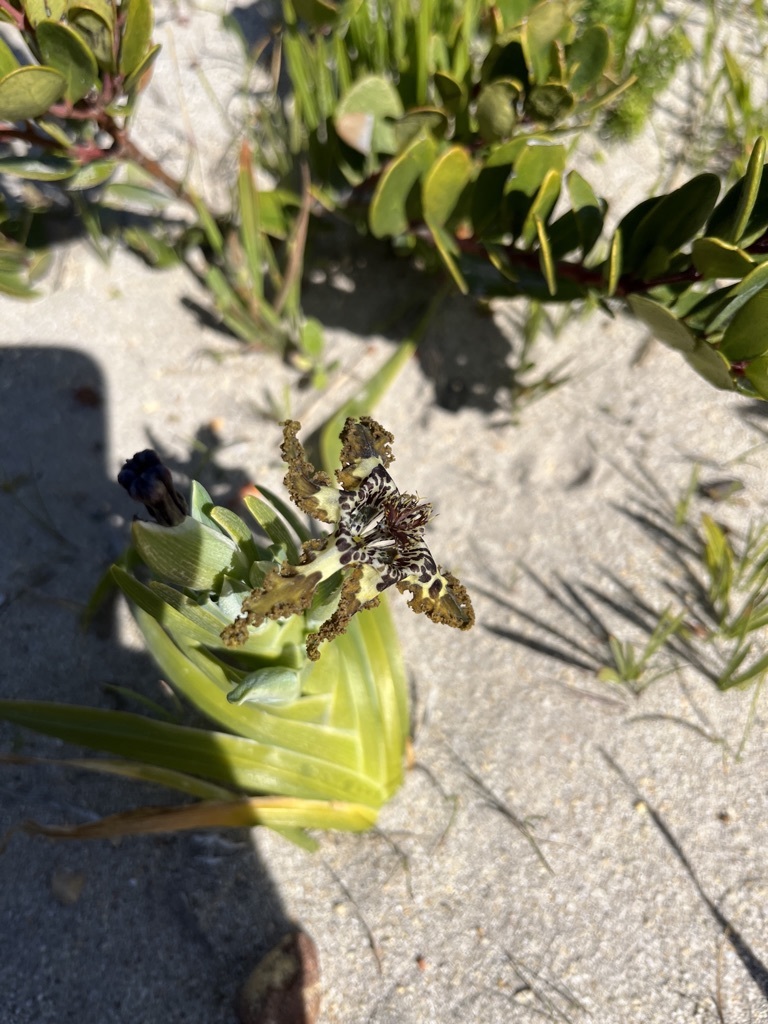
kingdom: Plantae
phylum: Tracheophyta
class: Liliopsida
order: Asparagales
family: Iridaceae
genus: Ferraria
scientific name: Ferraria crispa
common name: Black-flag
